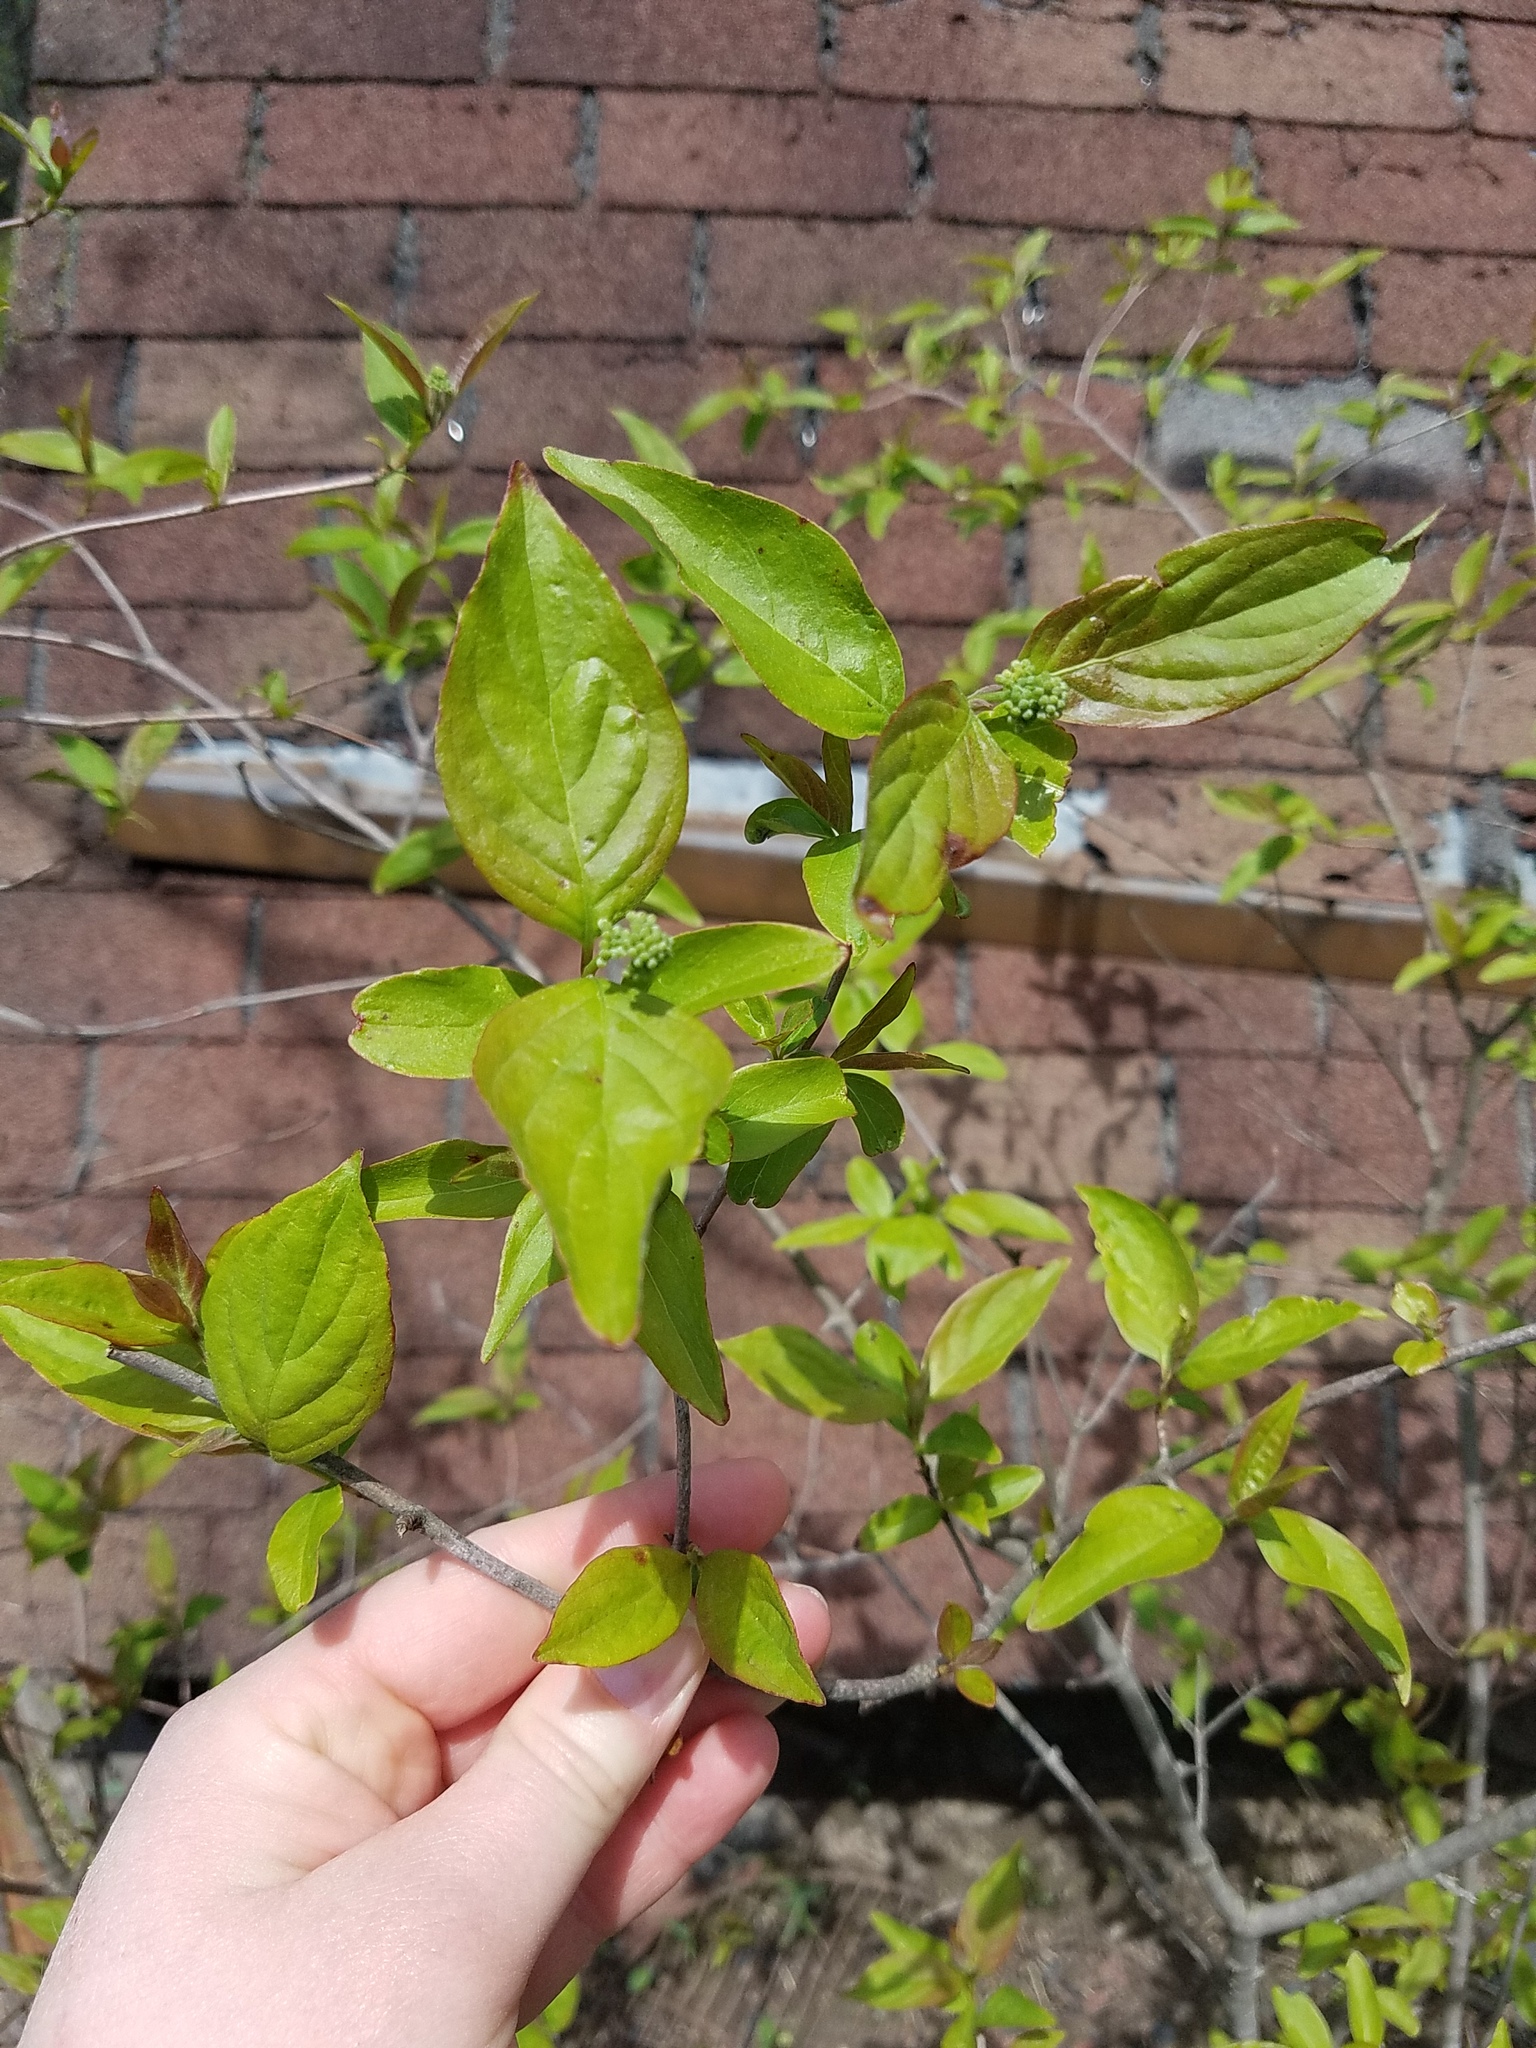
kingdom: Plantae
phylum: Tracheophyta
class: Magnoliopsida
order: Cornales
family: Cornaceae
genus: Cornus
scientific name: Cornus racemosa
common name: Panicled dogwood
